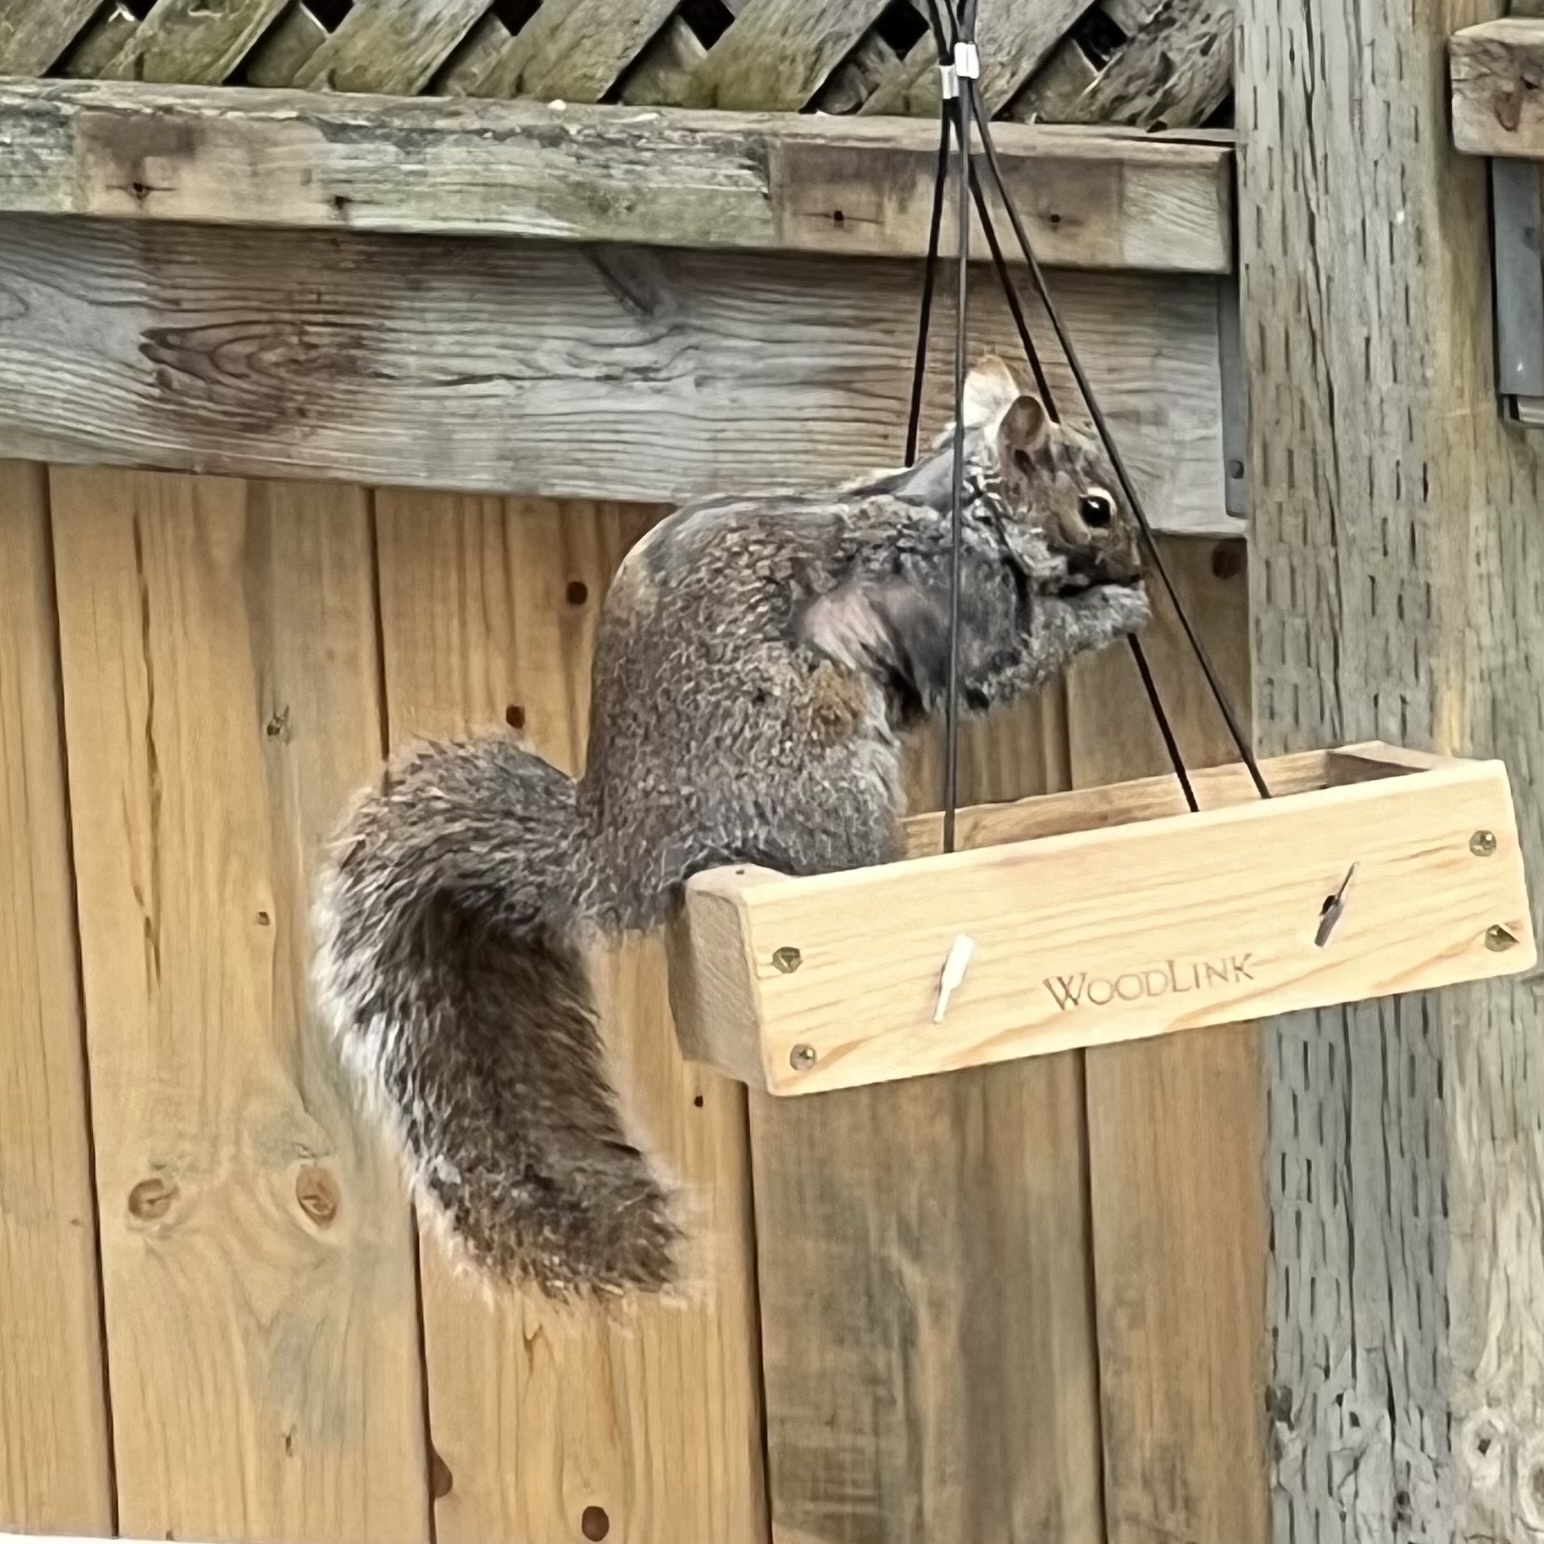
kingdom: Animalia
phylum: Chordata
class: Mammalia
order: Rodentia
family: Sciuridae
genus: Sciurus
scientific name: Sciurus carolinensis
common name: Eastern gray squirrel
